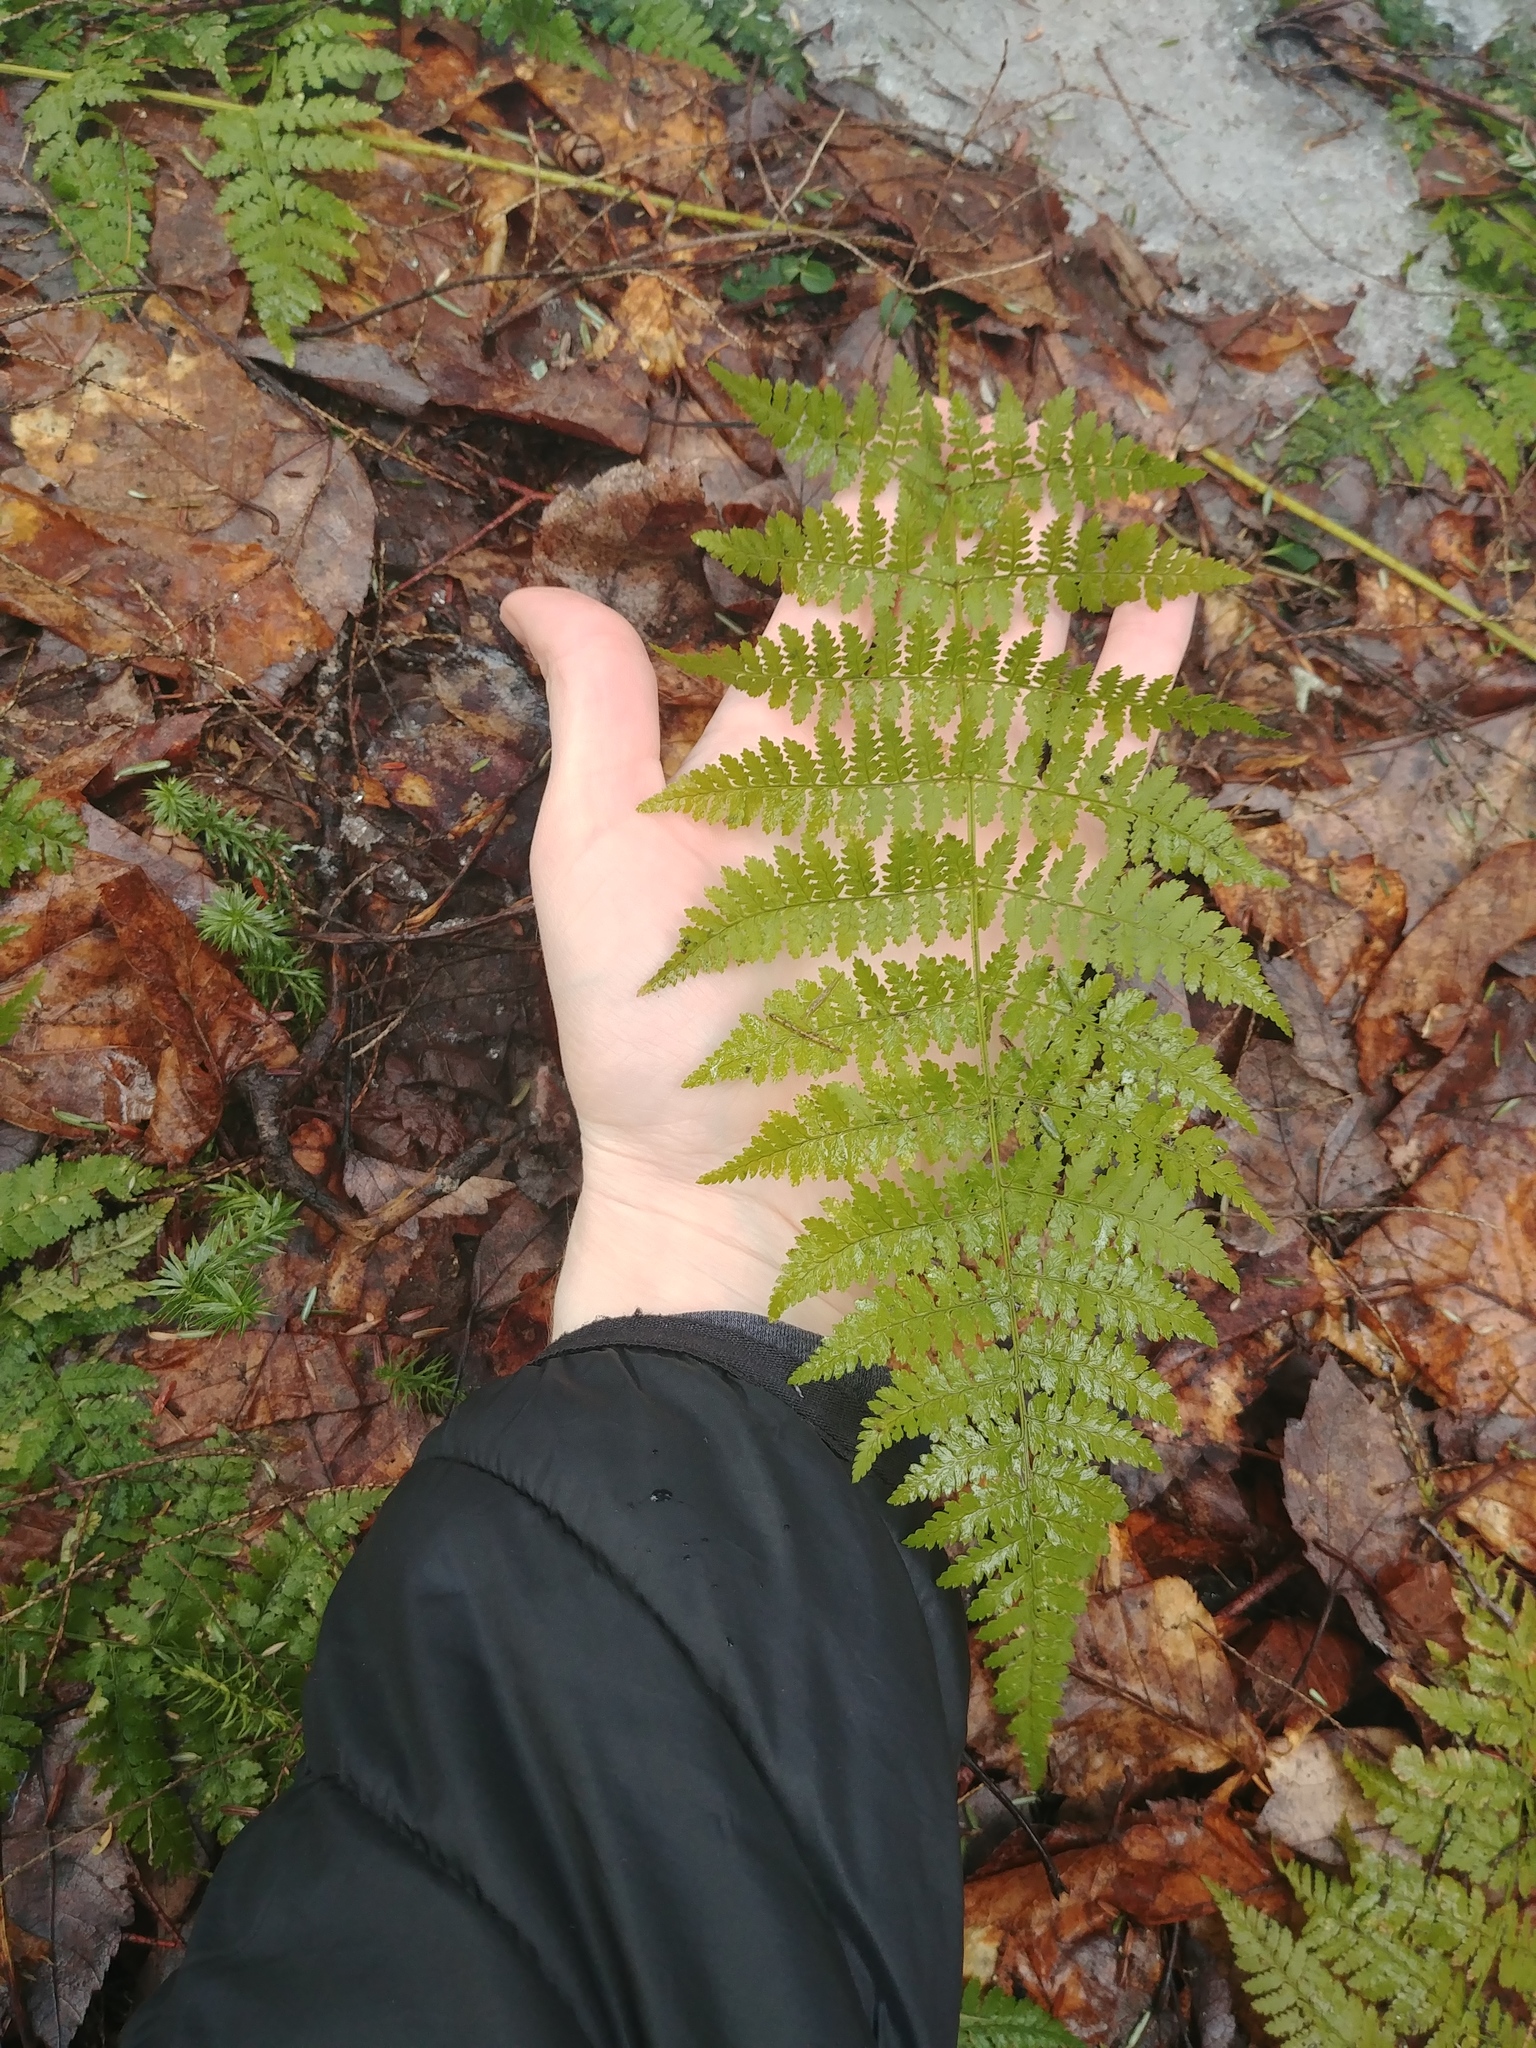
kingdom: Plantae
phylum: Tracheophyta
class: Polypodiopsida
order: Polypodiales
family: Dryopteridaceae
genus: Dryopteris
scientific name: Dryopteris intermedia
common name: Evergreen wood fern
